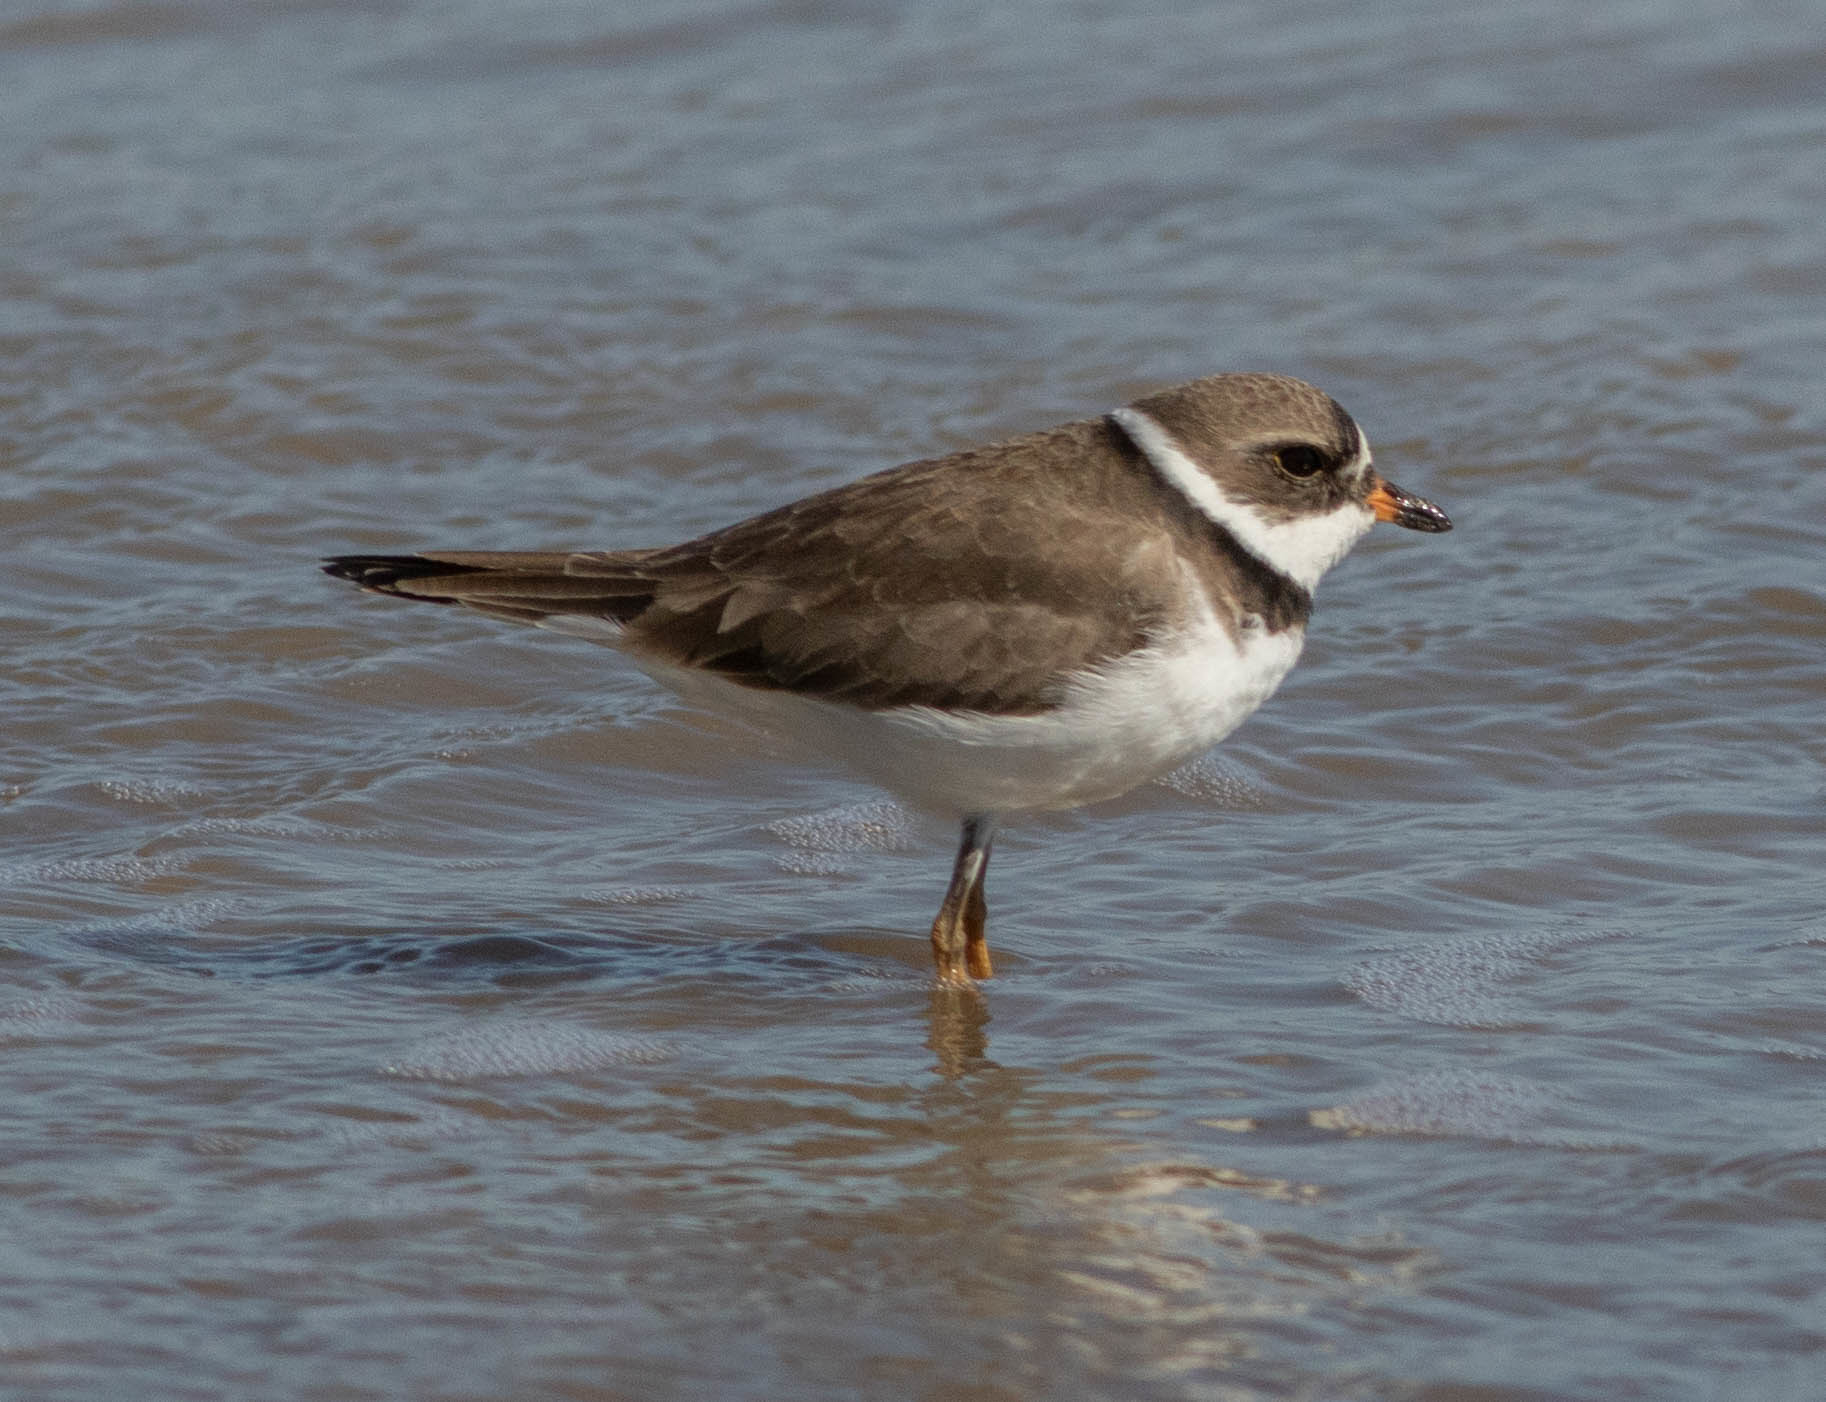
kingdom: Animalia
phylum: Chordata
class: Aves
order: Charadriiformes
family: Charadriidae
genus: Charadrius
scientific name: Charadrius semipalmatus
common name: Semipalmated plover
